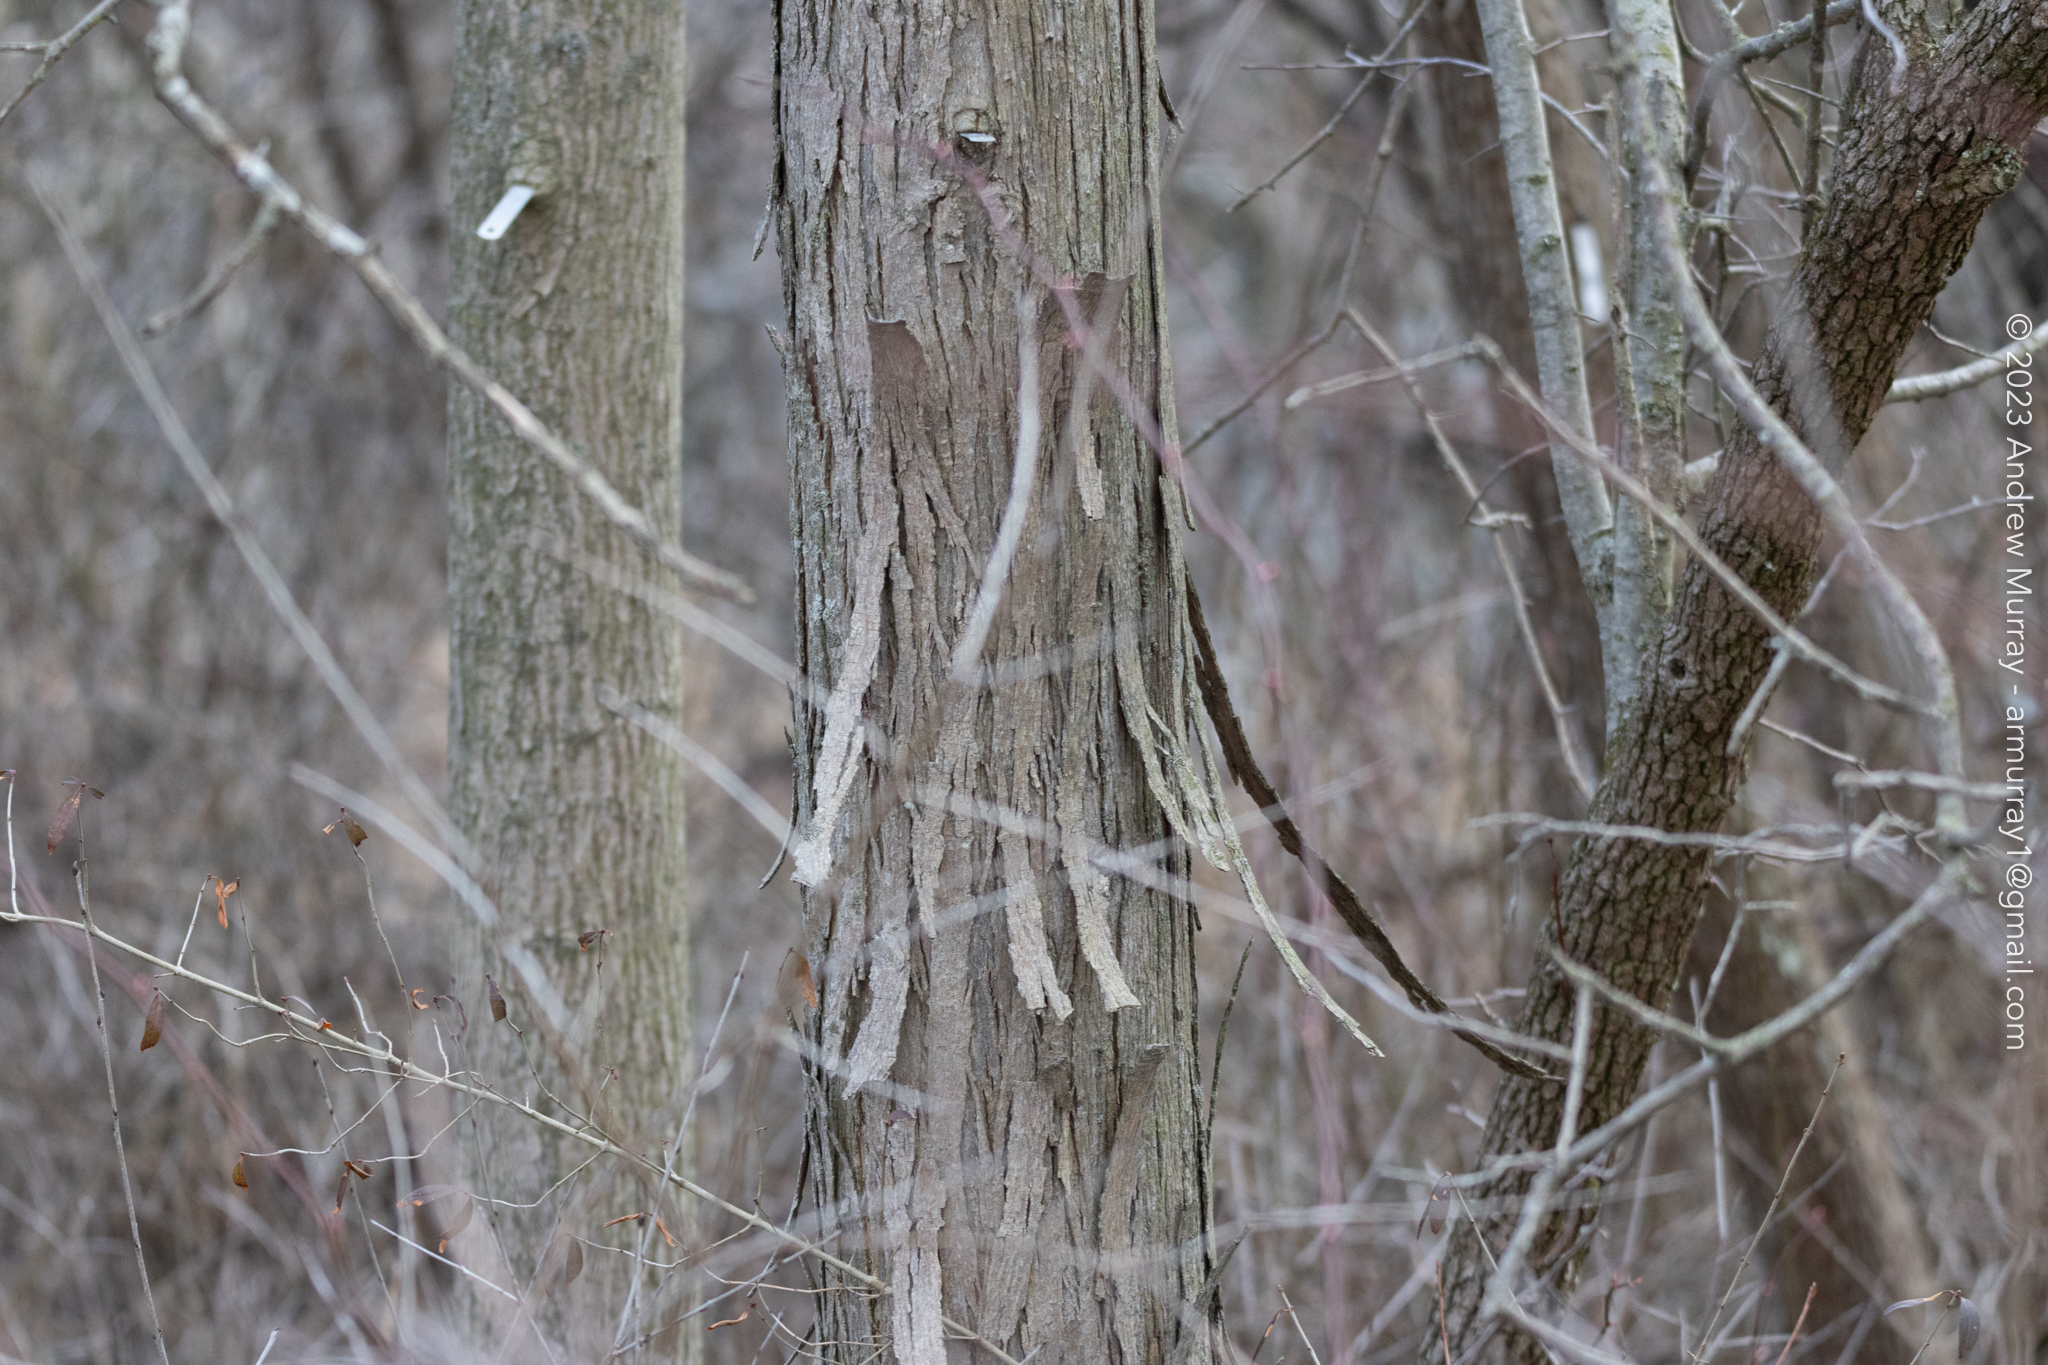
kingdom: Plantae
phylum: Tracheophyta
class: Magnoliopsida
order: Fagales
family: Juglandaceae
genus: Carya
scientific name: Carya ovata
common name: Shagbark hickory
